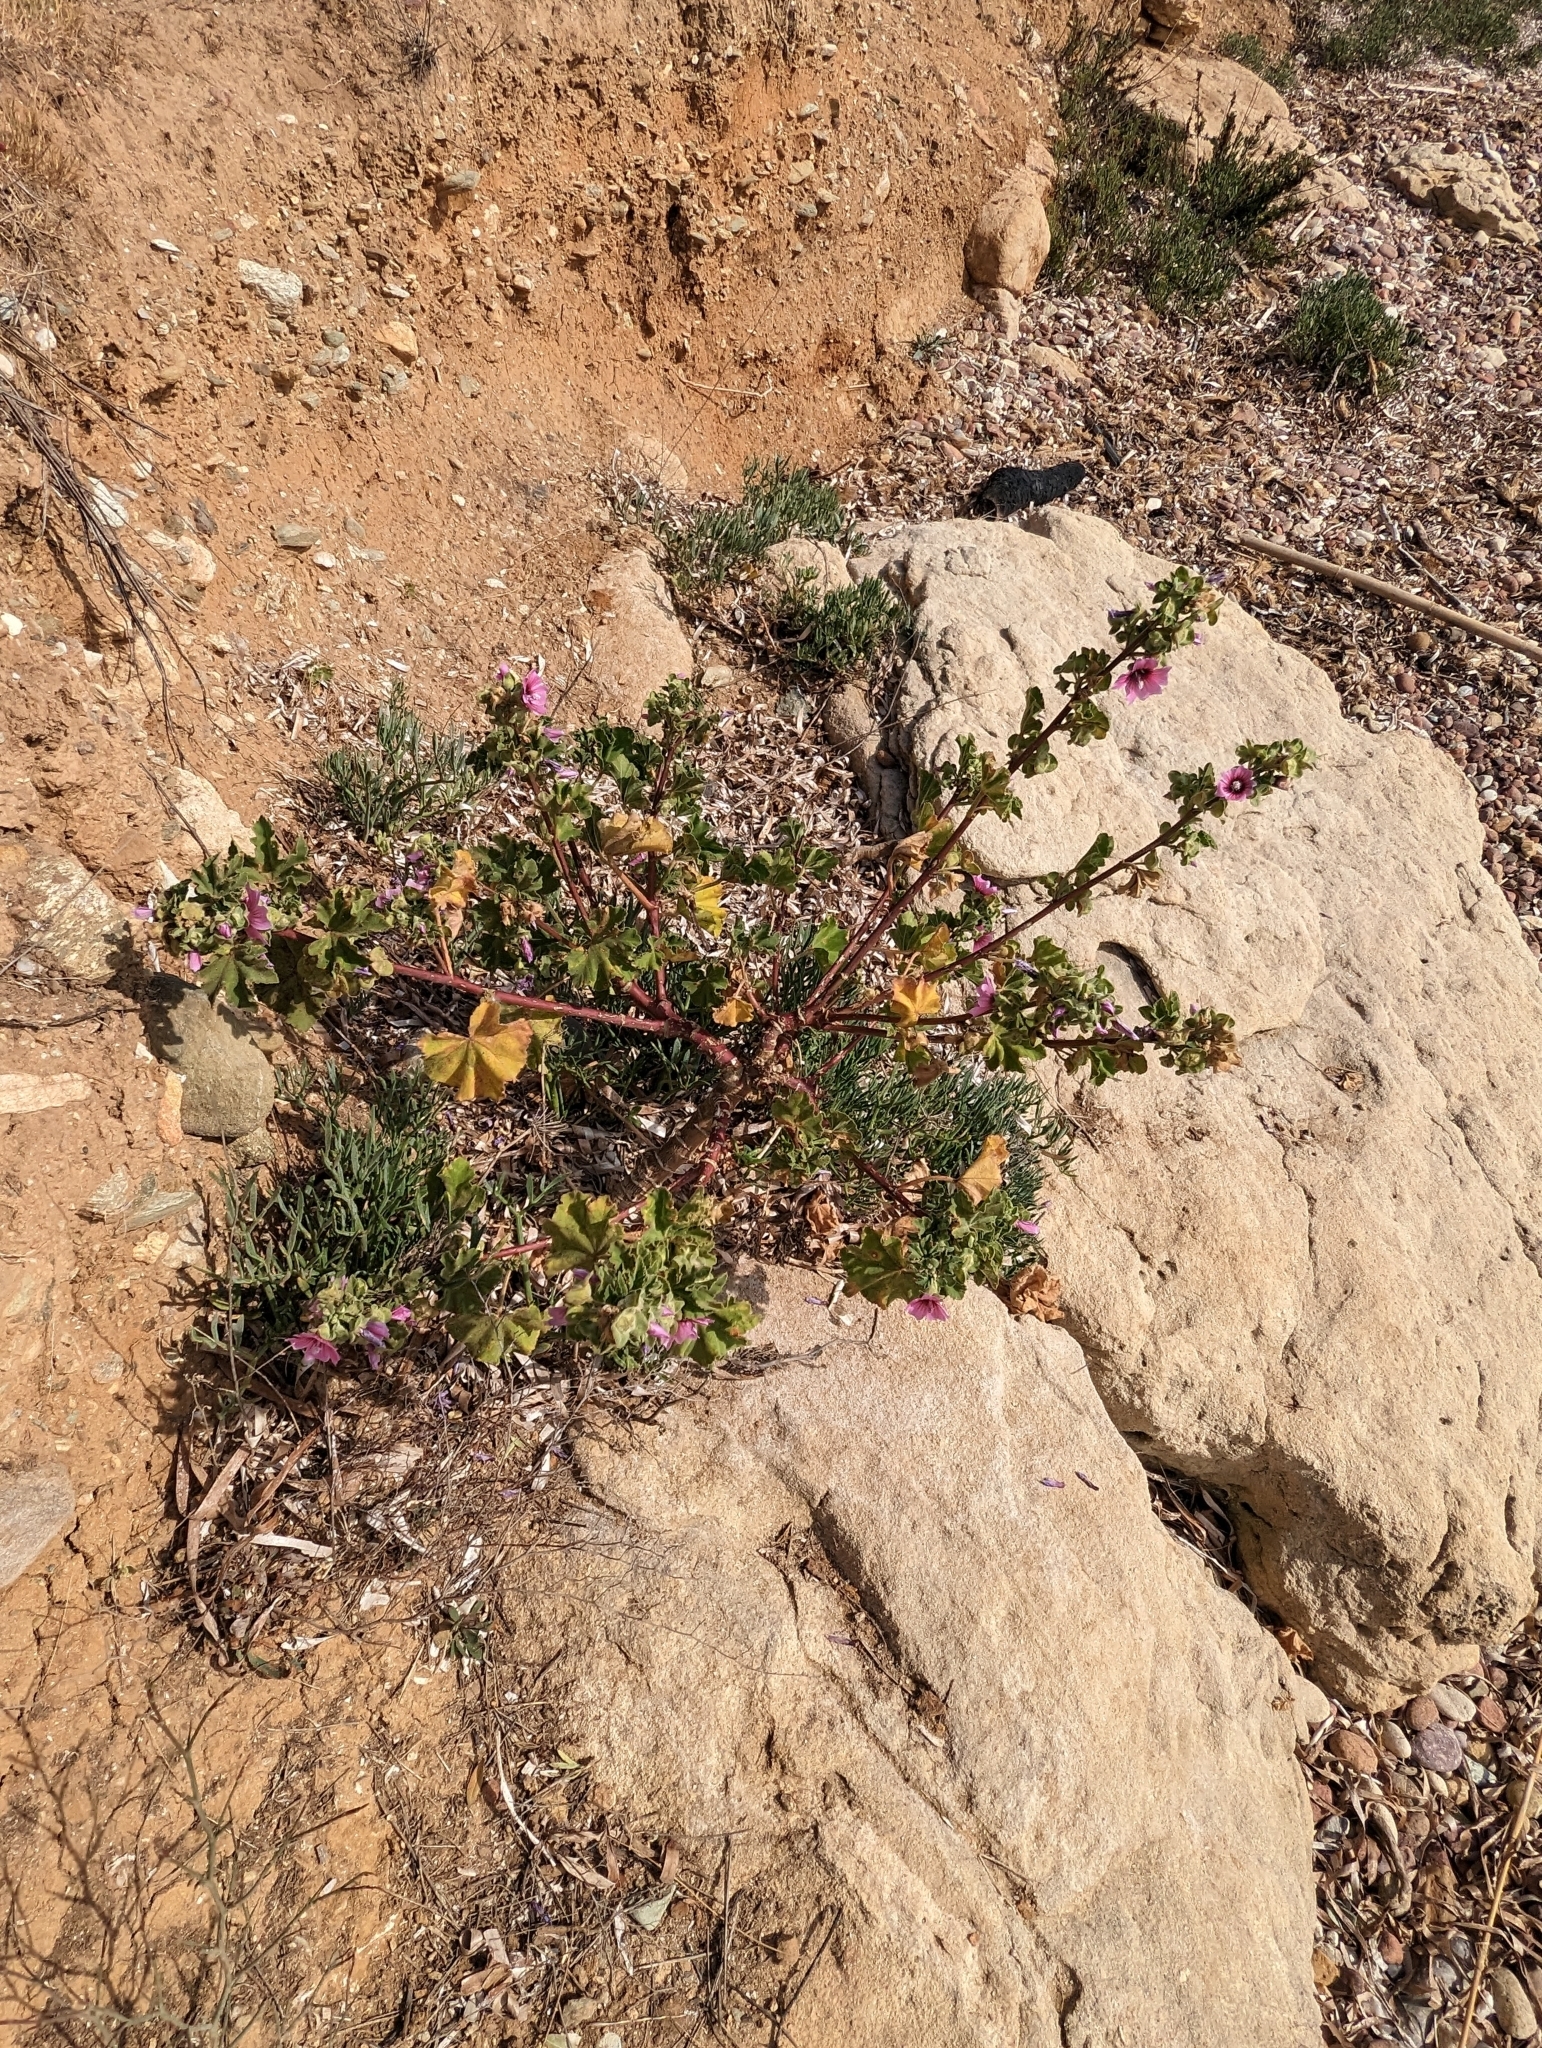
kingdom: Plantae
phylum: Tracheophyta
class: Magnoliopsida
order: Malvales
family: Malvaceae
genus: Malva
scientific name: Malva arborea
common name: Tree mallow
